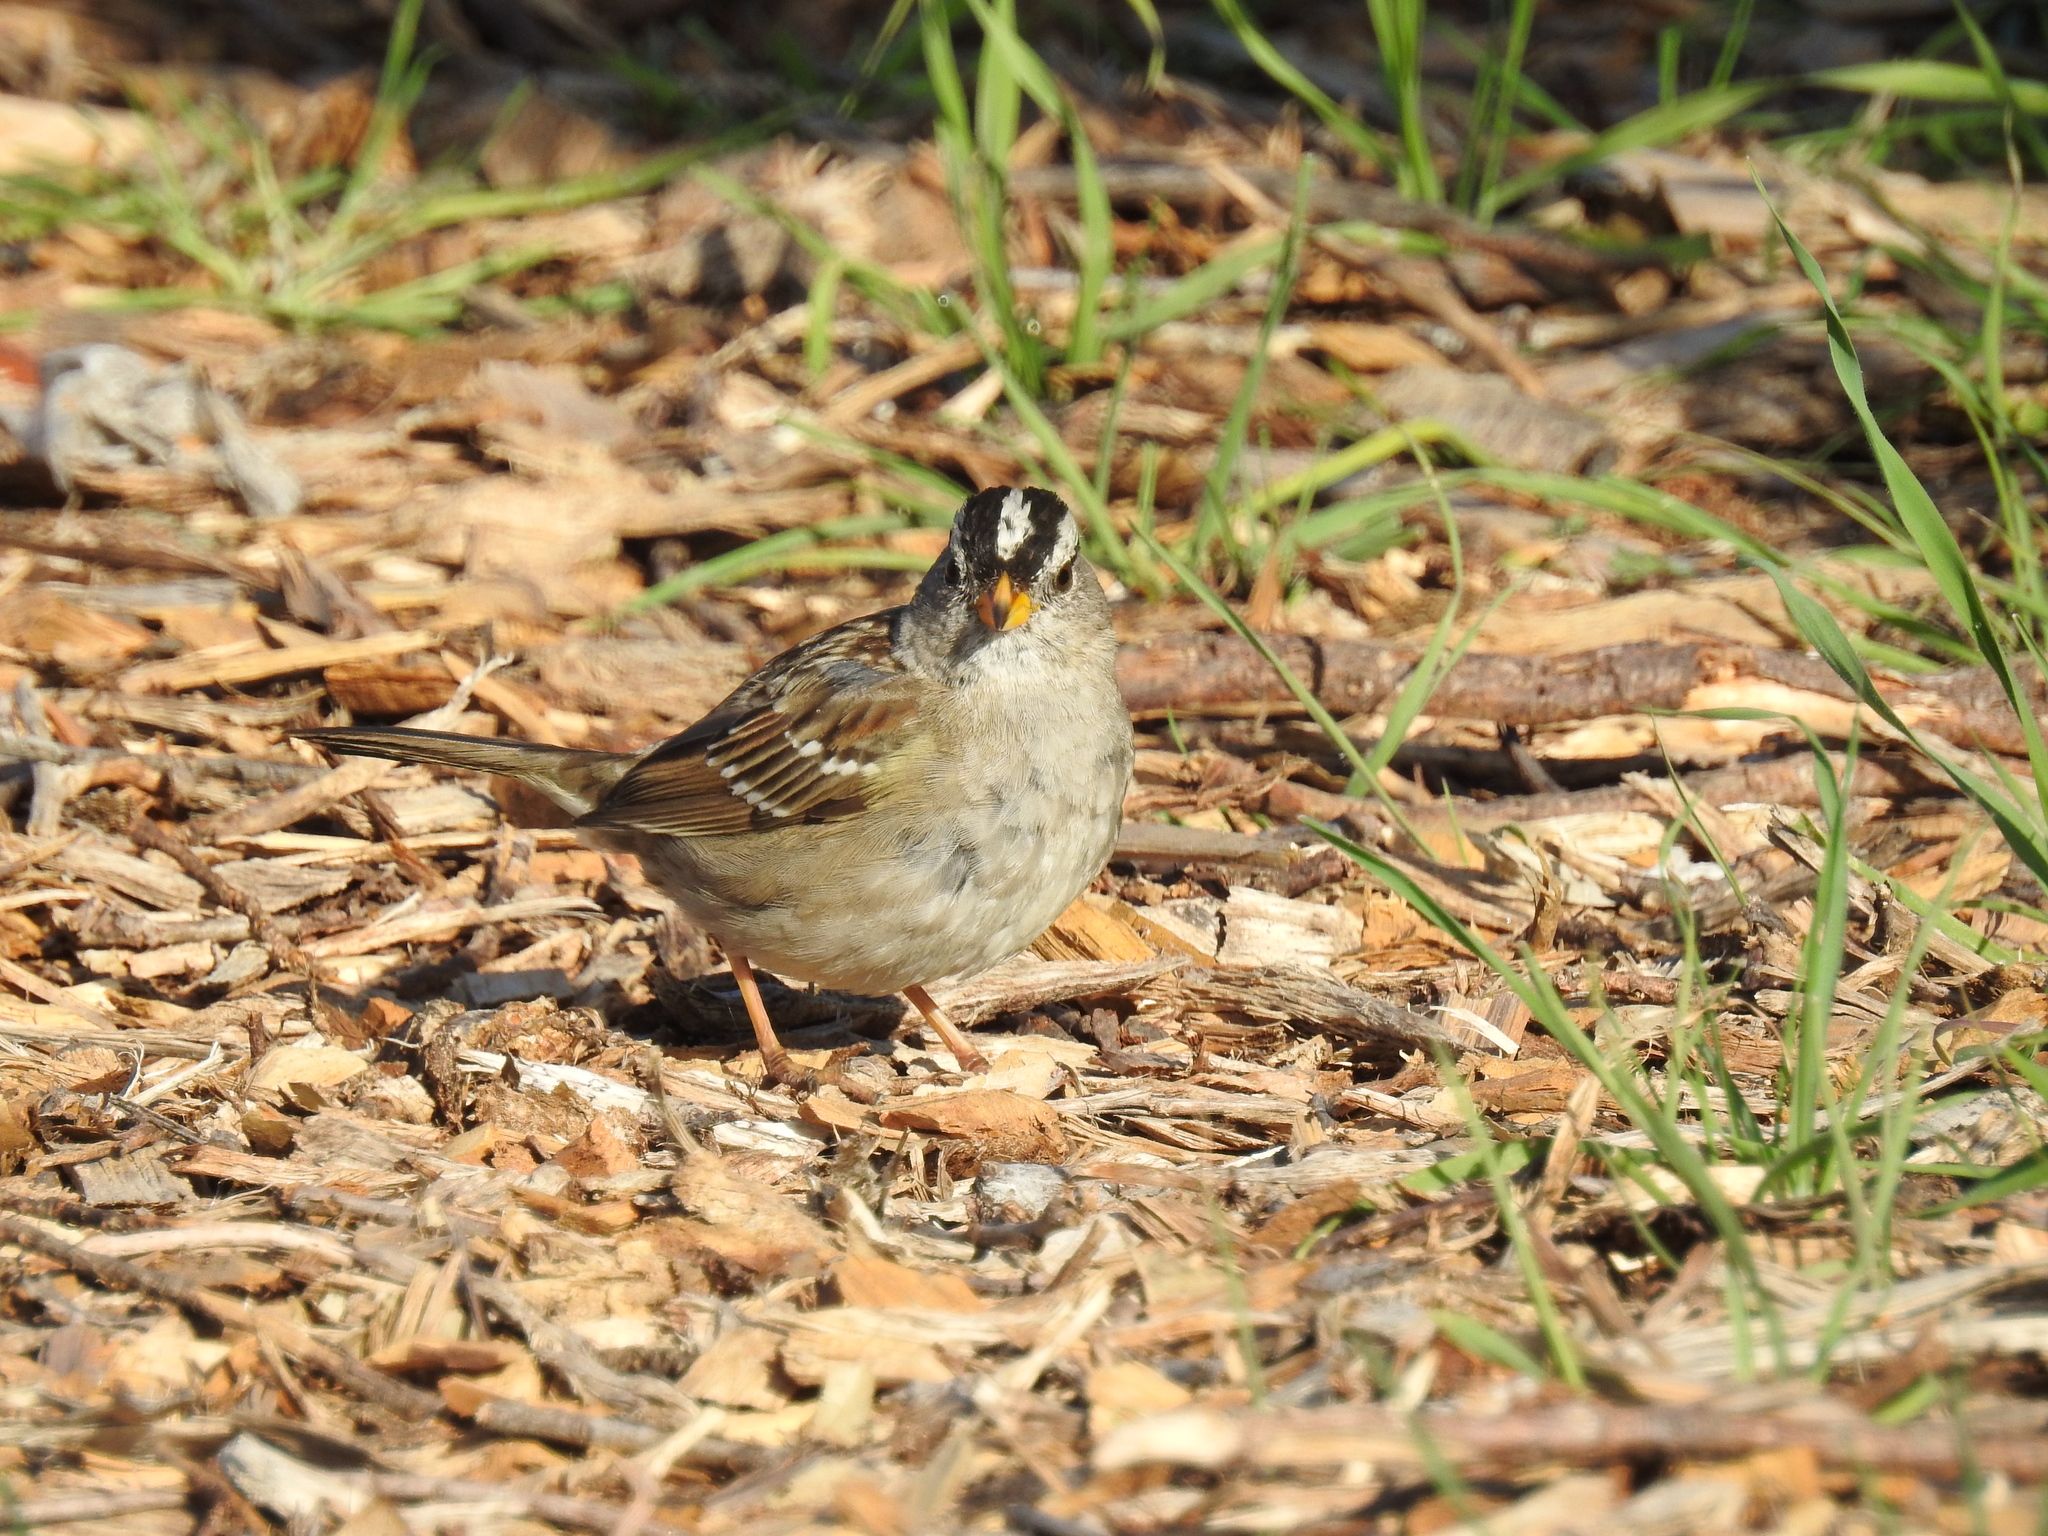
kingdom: Animalia
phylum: Chordata
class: Aves
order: Passeriformes
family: Passerellidae
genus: Zonotrichia
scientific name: Zonotrichia leucophrys
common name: White-crowned sparrow
